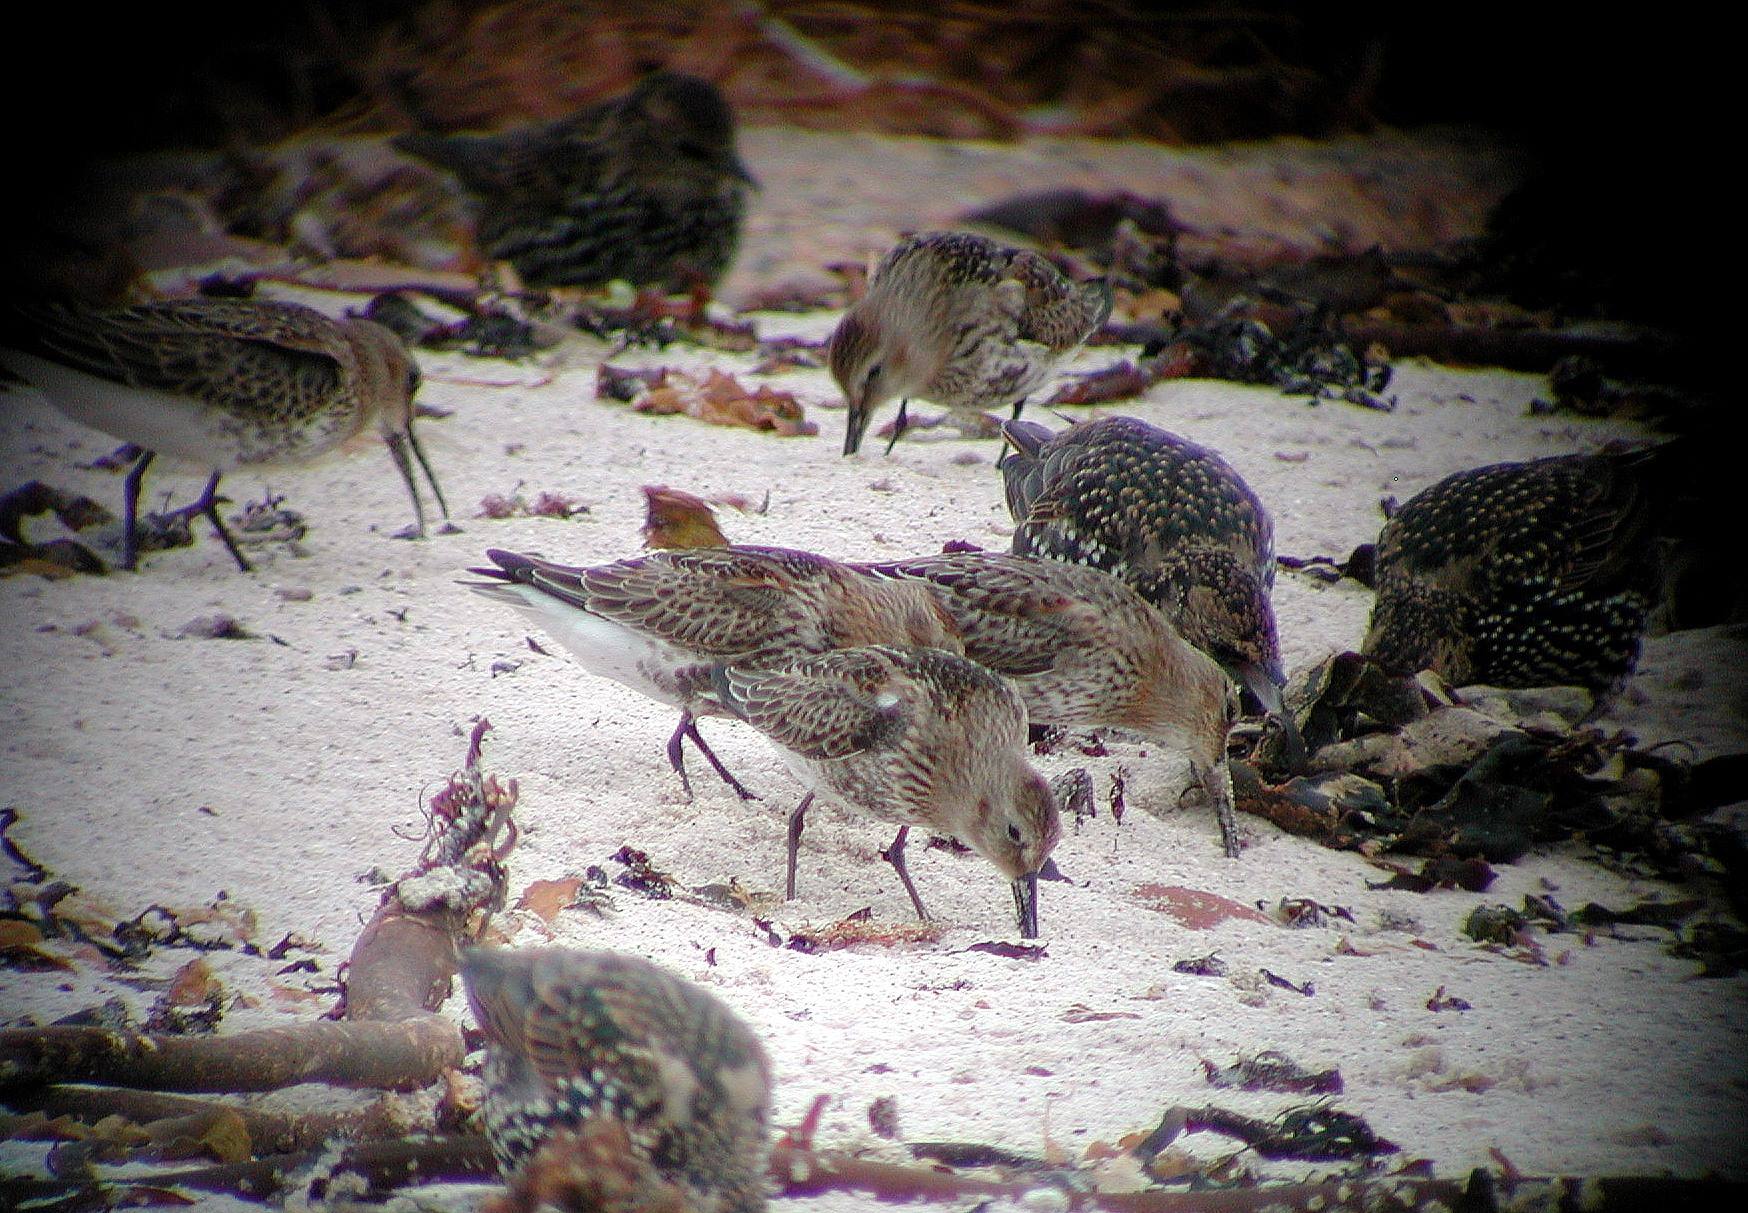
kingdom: Animalia
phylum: Chordata
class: Aves
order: Charadriiformes
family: Scolopacidae
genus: Calidris
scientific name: Calidris alpina
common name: Dunlin
